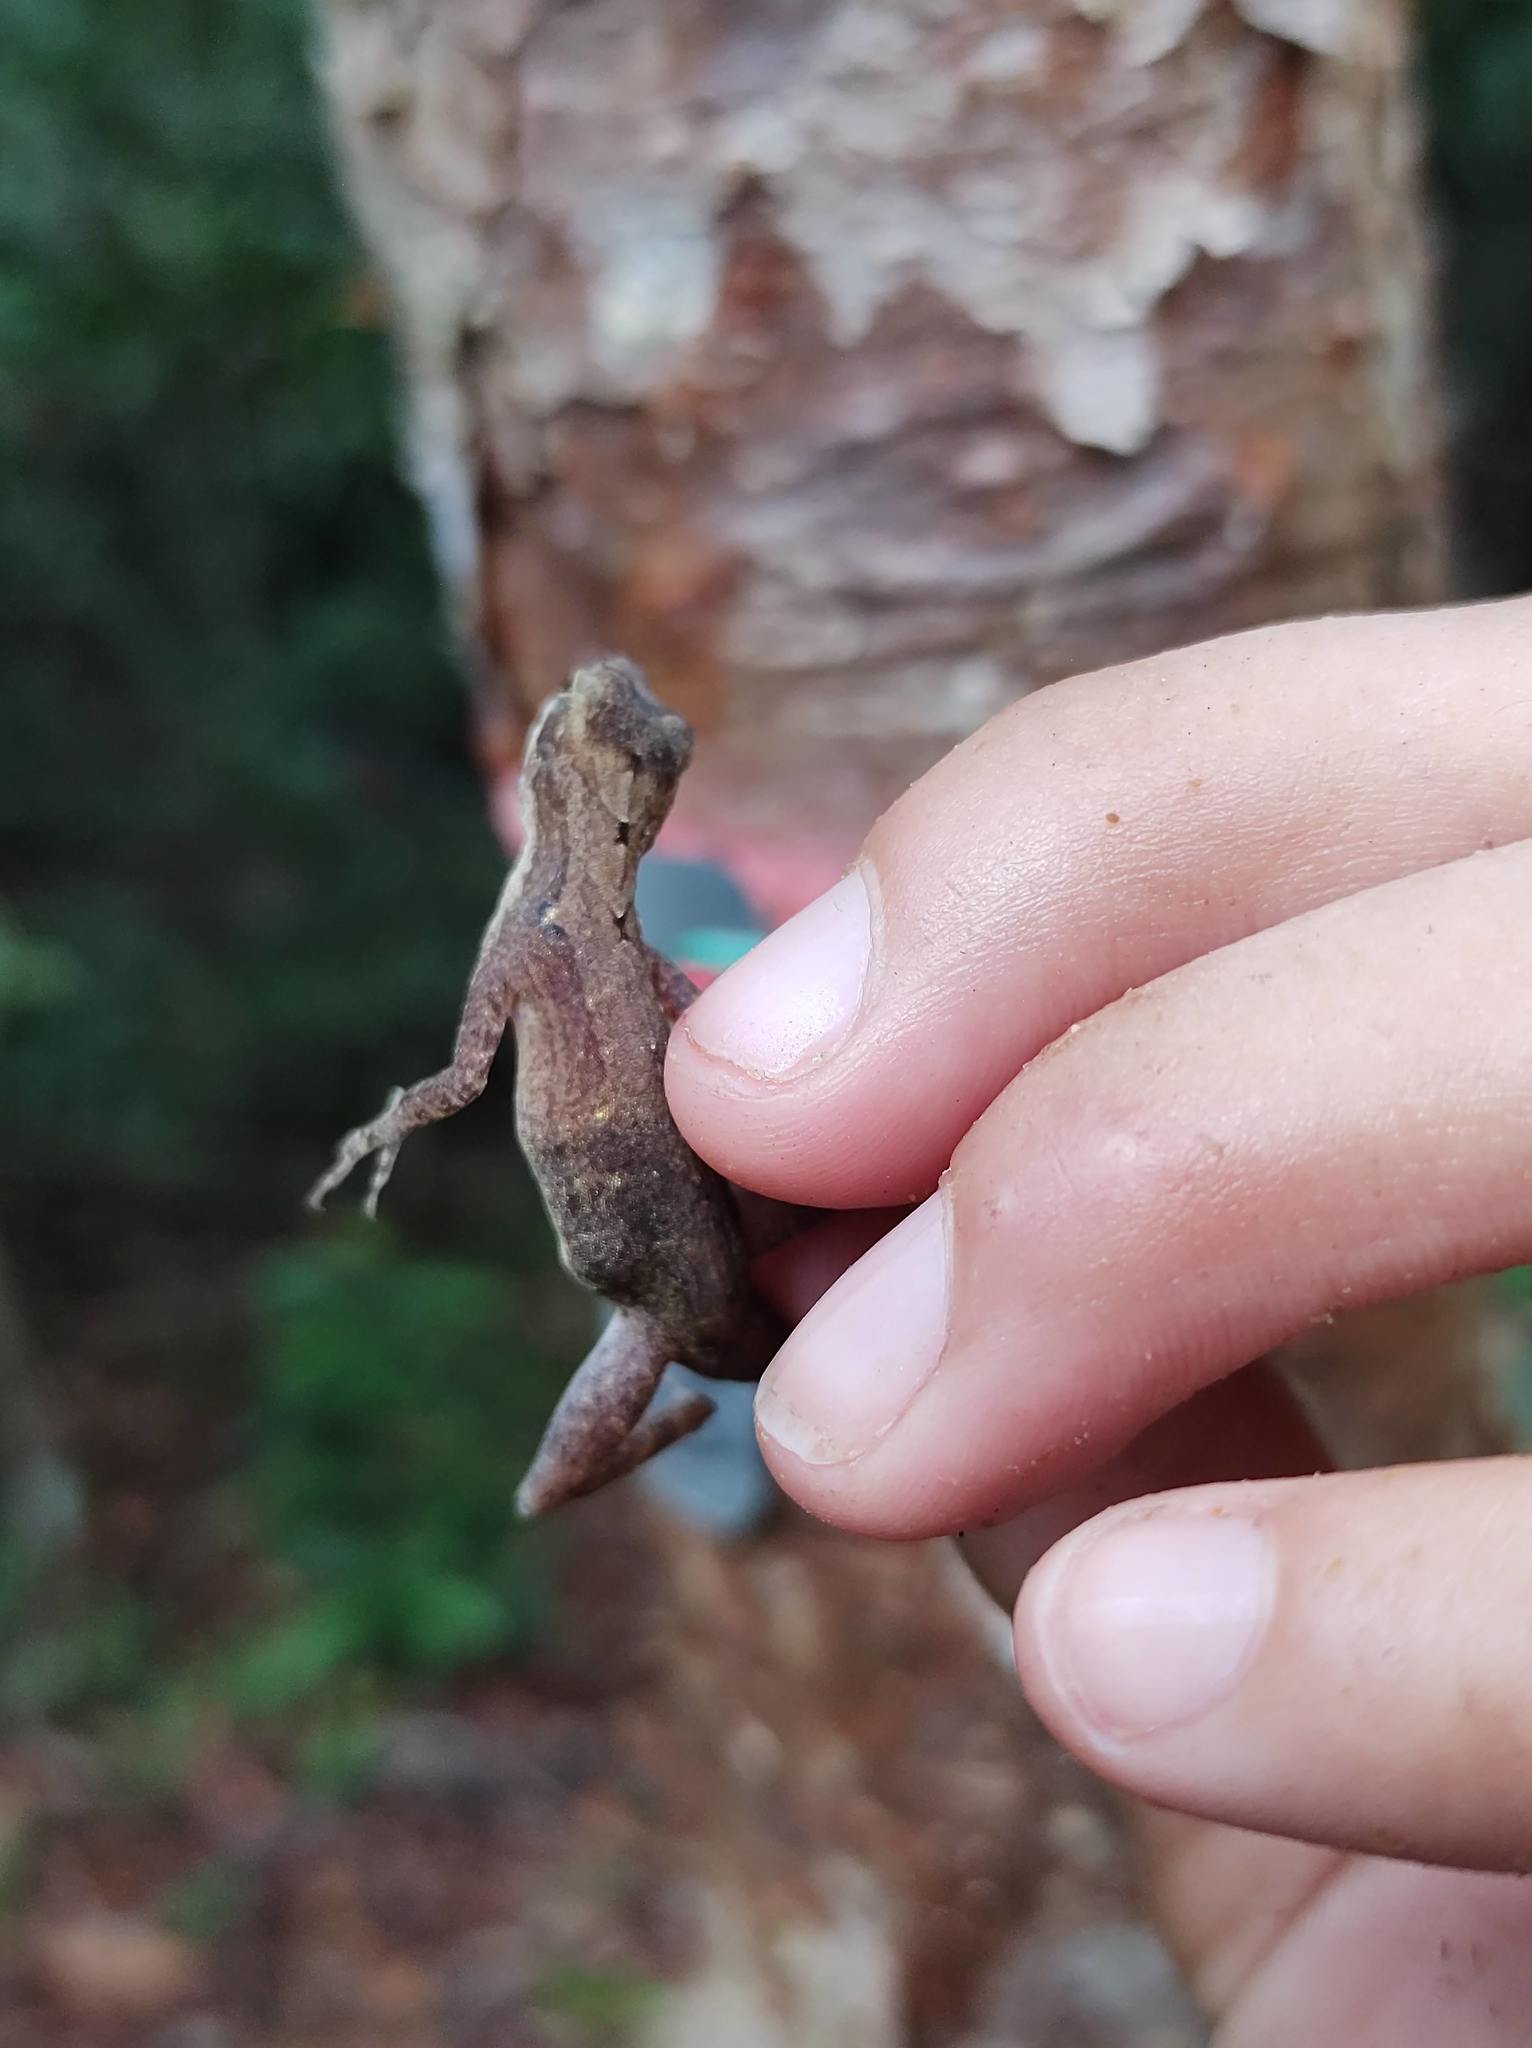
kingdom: Animalia
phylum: Chordata
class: Squamata
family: Dactyloidae
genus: Anolis
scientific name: Anolis rodriguezii
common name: Middle american smooth anole
